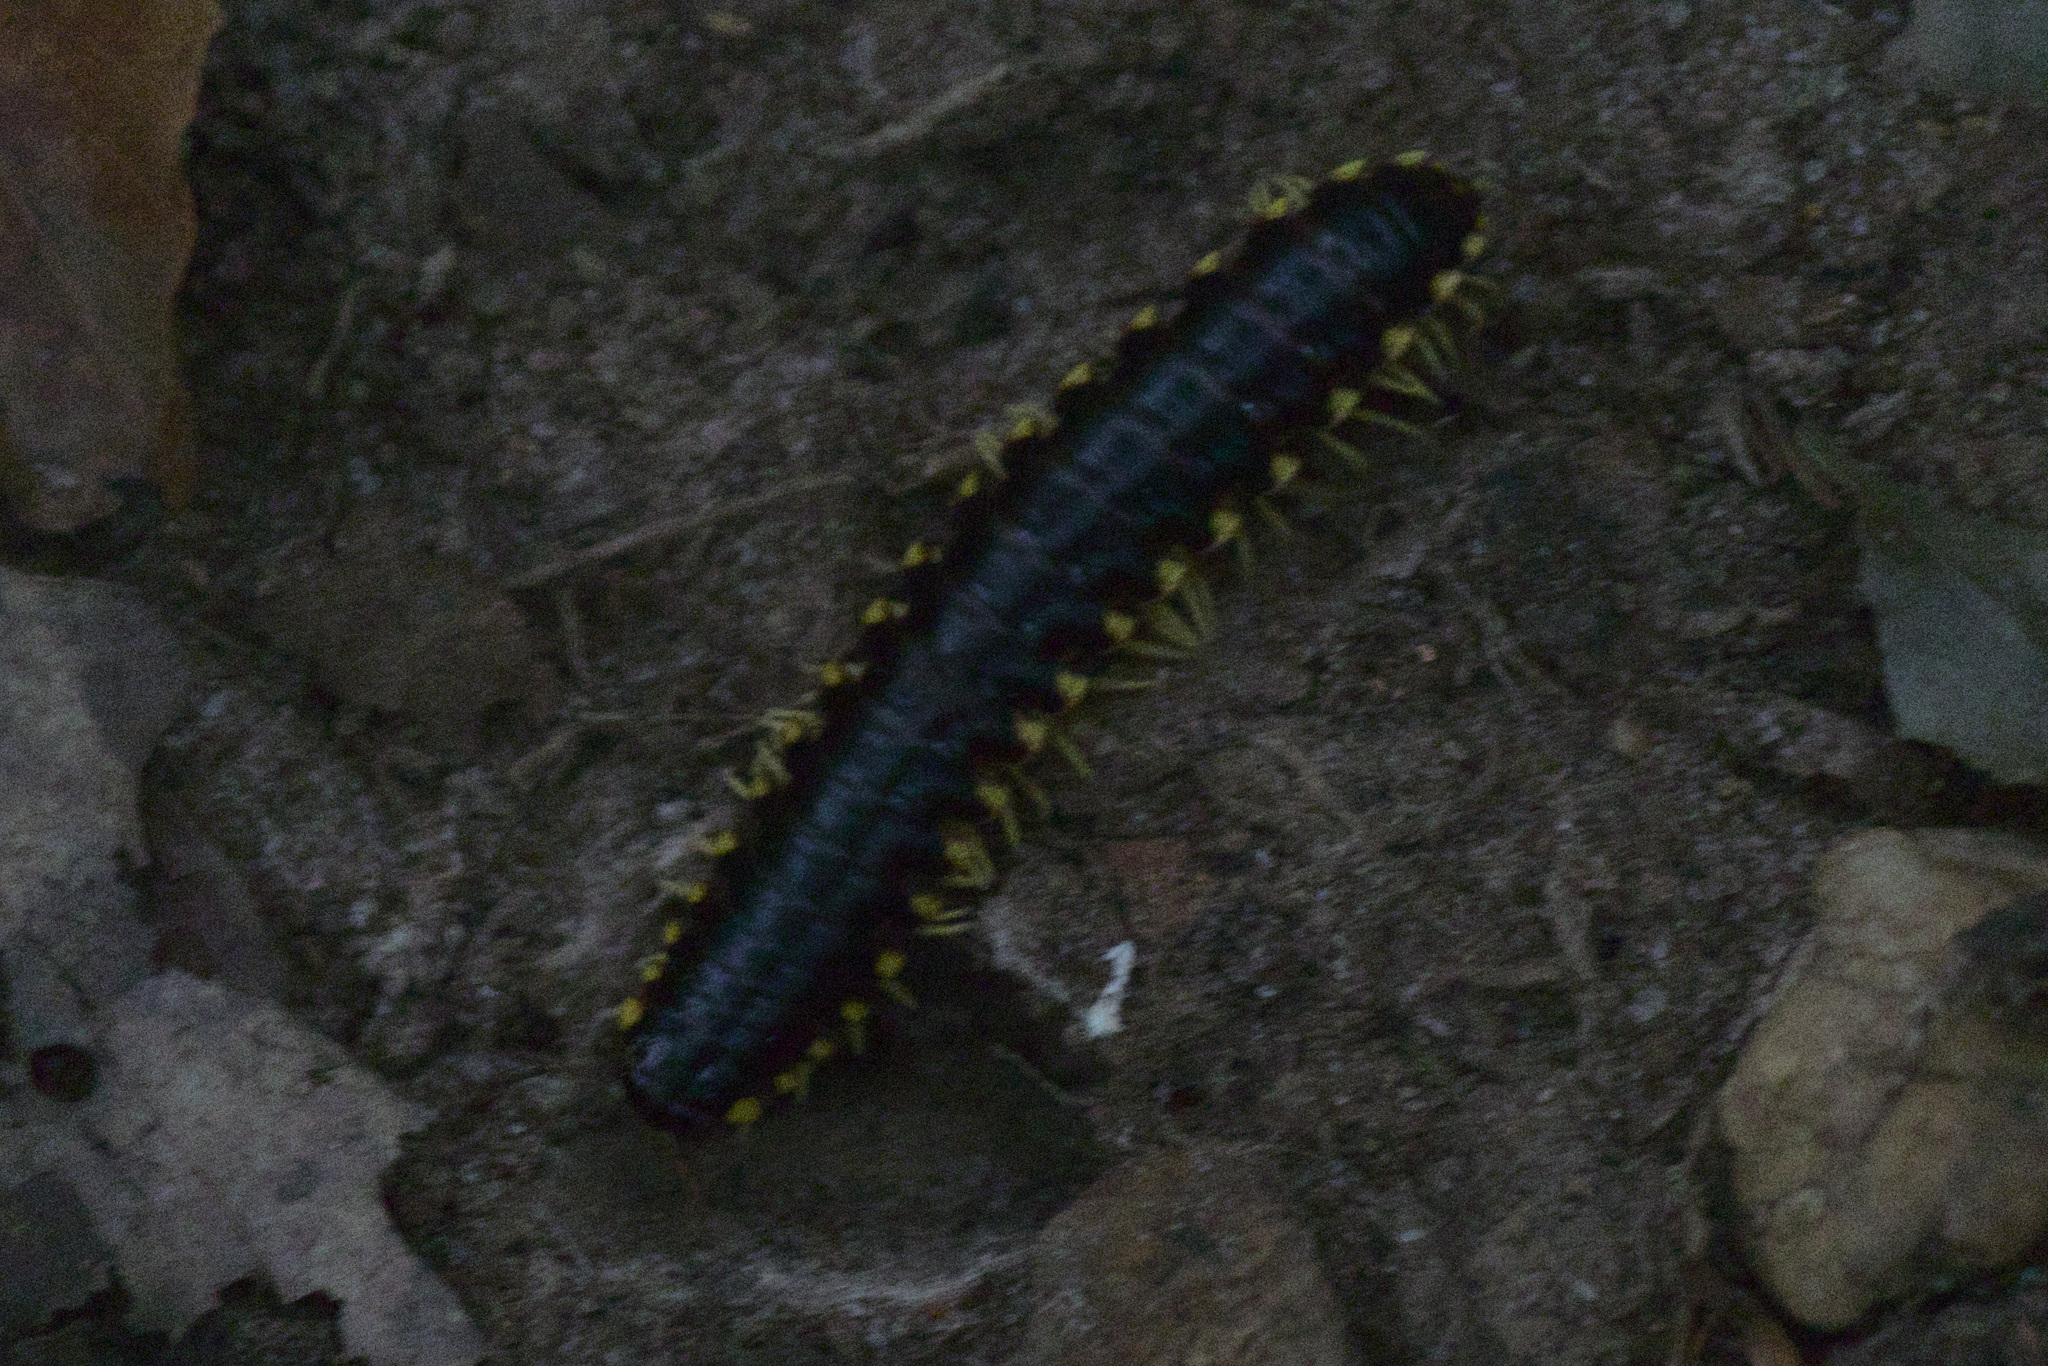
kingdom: Animalia
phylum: Arthropoda
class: Diplopoda
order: Polydesmida
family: Xystodesmidae
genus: Apheloria
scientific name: Apheloria tigana
